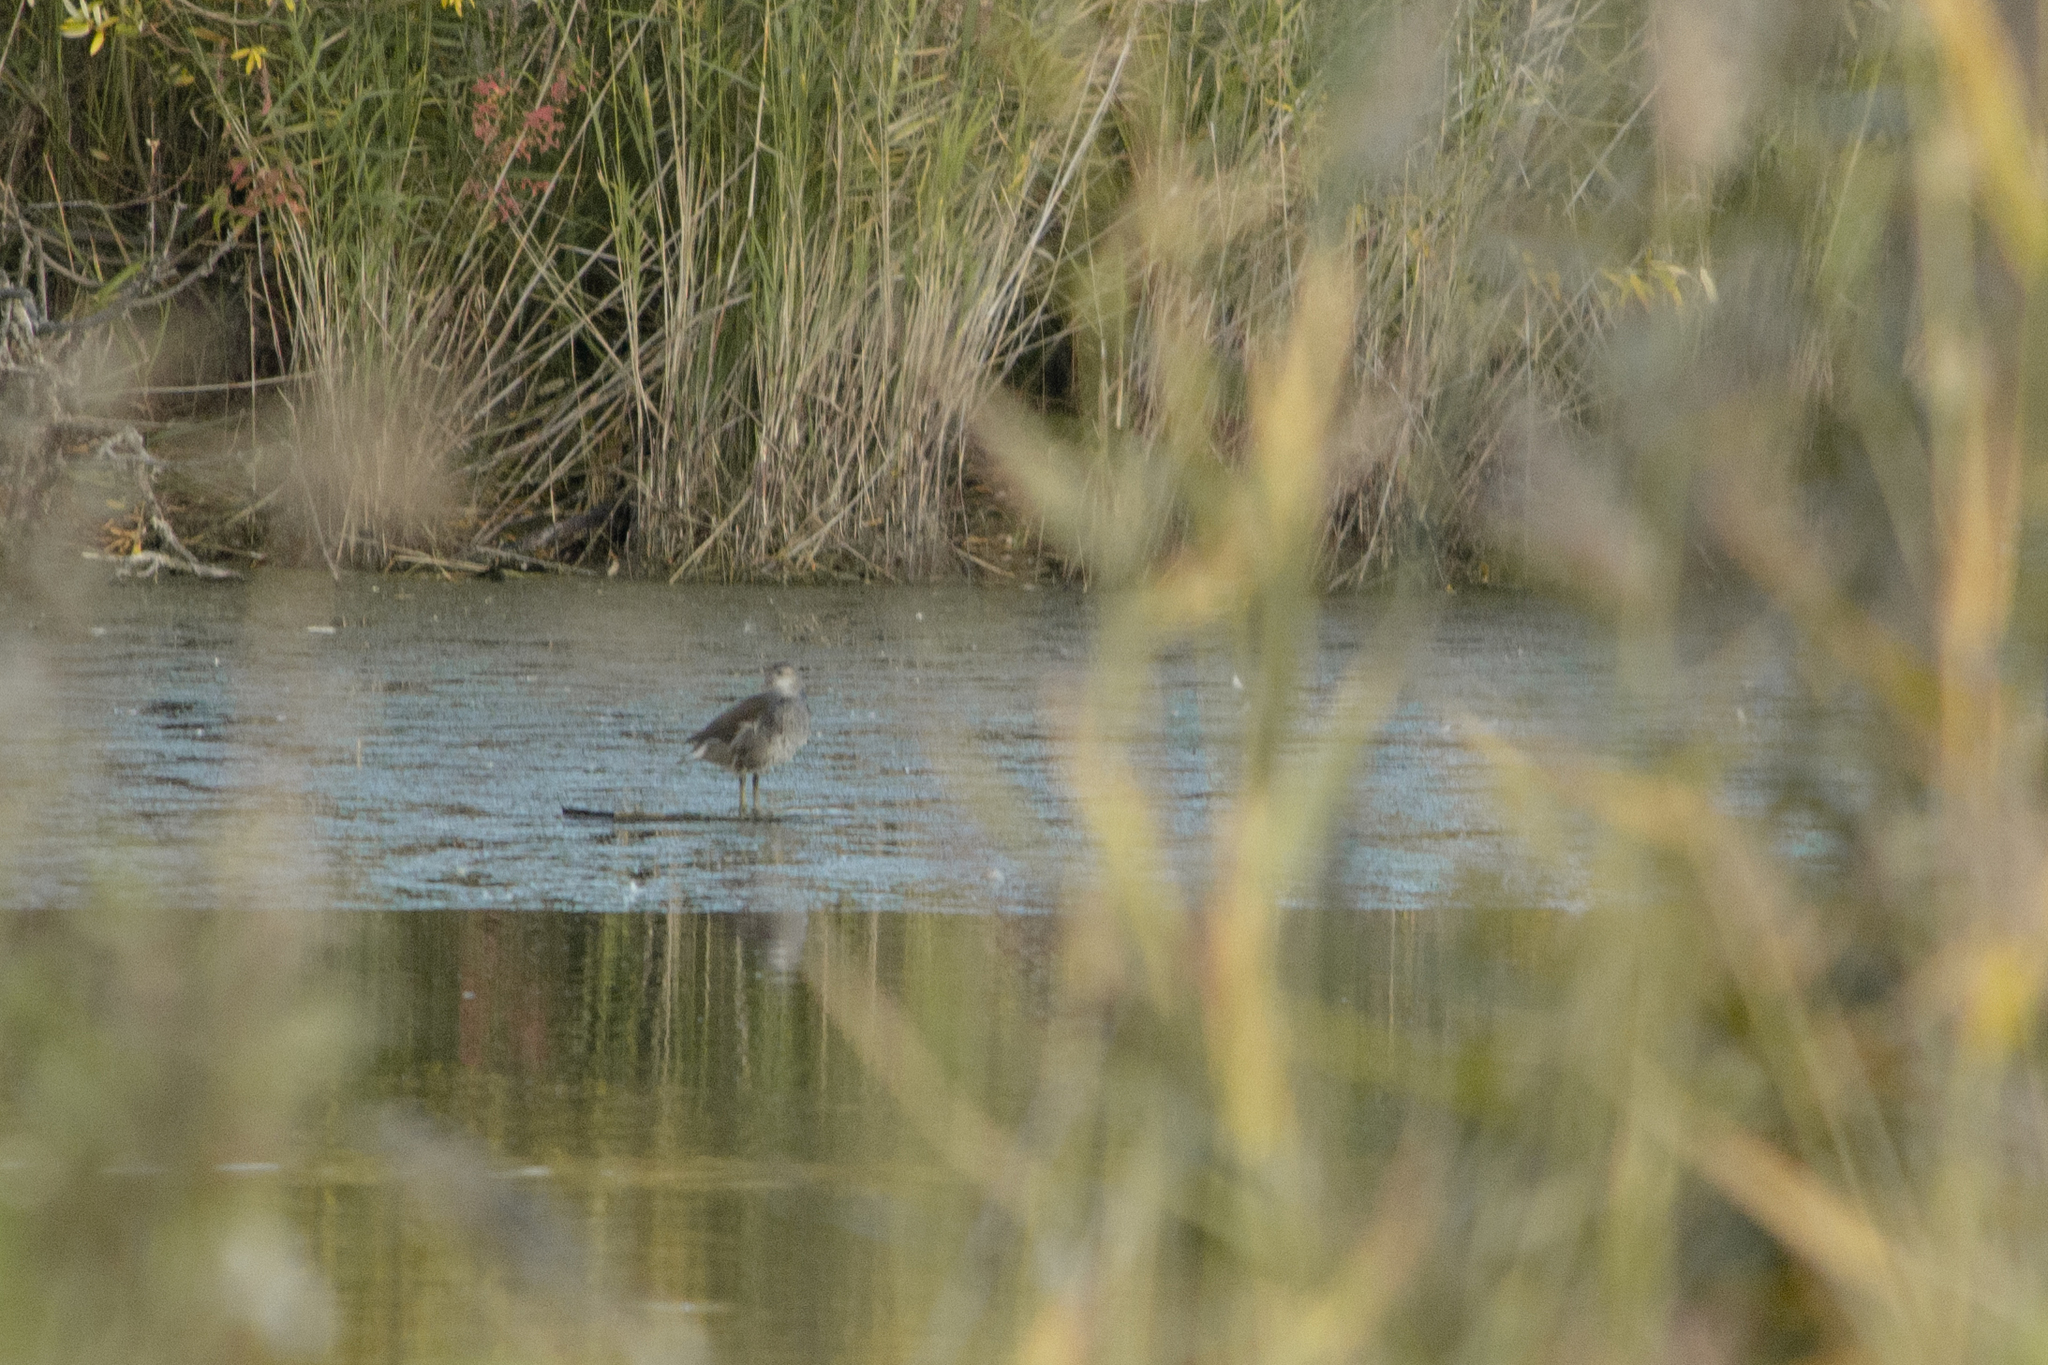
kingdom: Animalia
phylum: Chordata
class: Aves
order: Gruiformes
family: Rallidae
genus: Gallinula
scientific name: Gallinula chloropus
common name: Common moorhen
